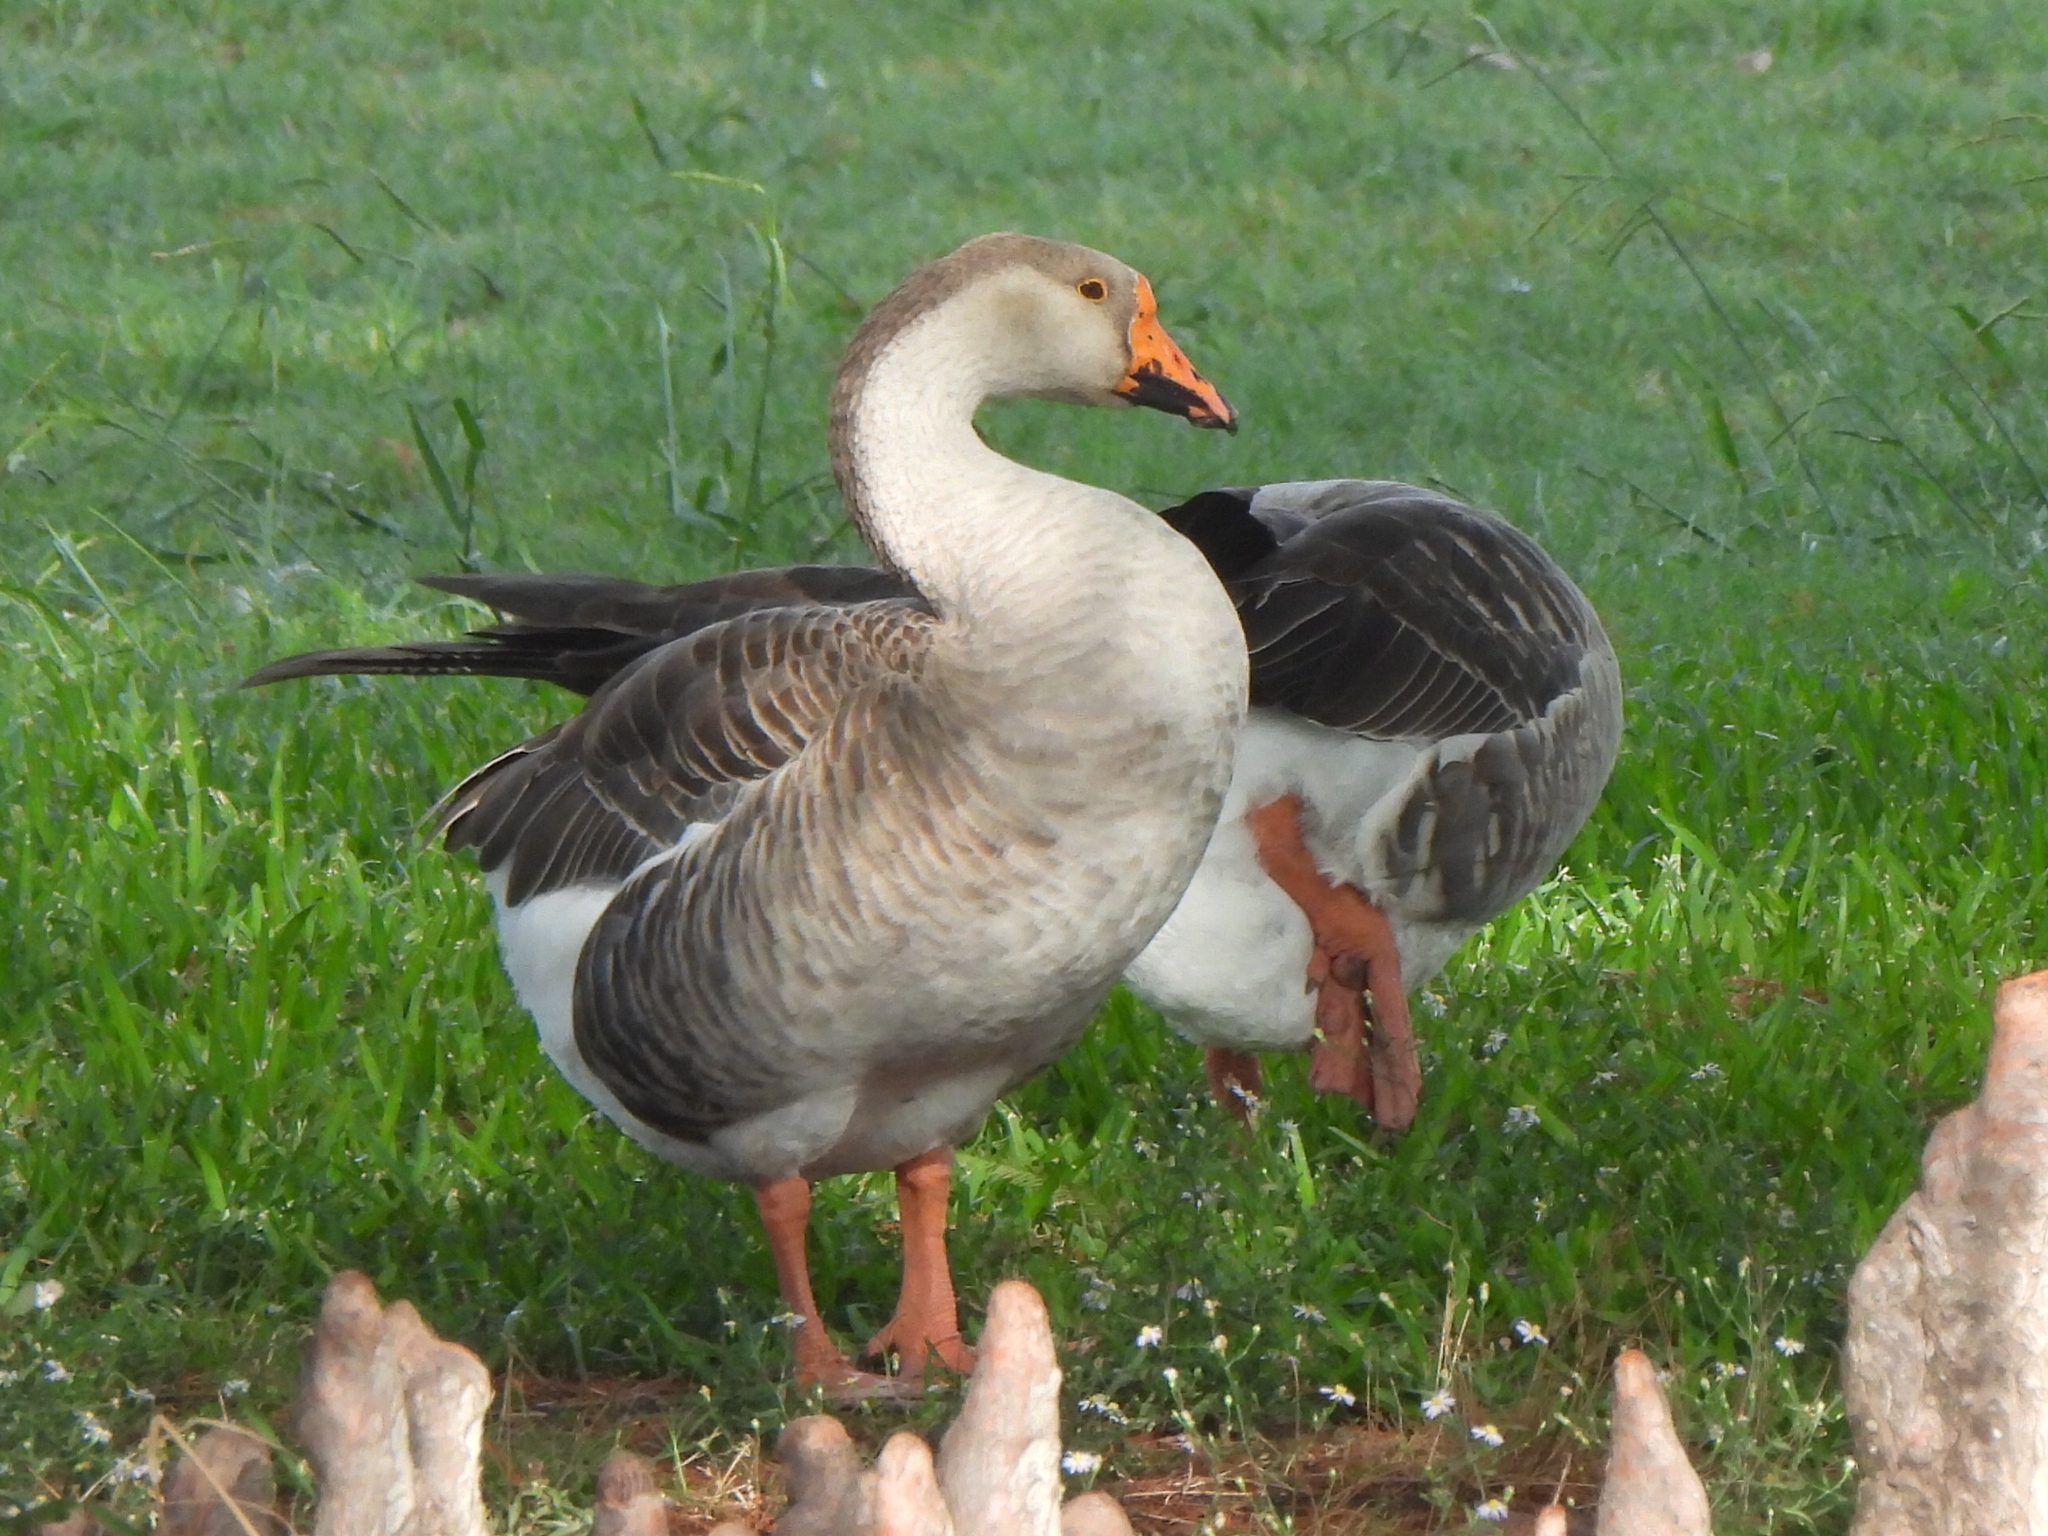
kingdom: Animalia
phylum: Chordata
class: Aves
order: Anseriformes
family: Anatidae
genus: Anser
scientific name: Anser
